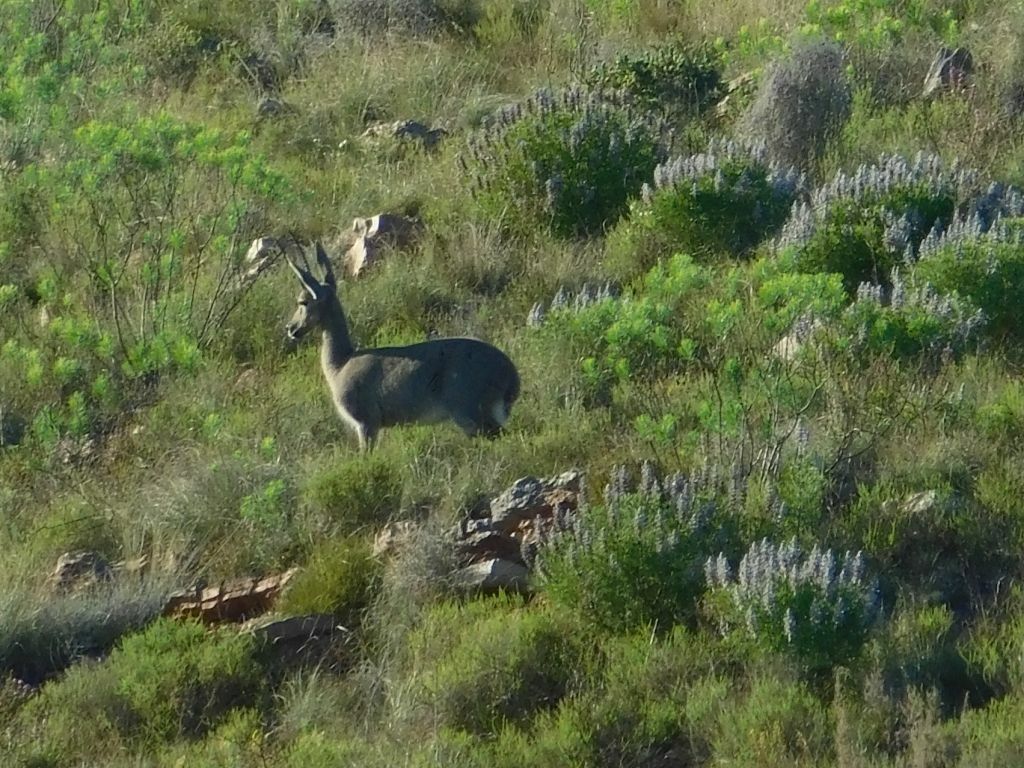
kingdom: Animalia
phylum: Chordata
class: Mammalia
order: Artiodactyla
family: Bovidae
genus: Pelea
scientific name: Pelea capreolus
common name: Common rhebok
